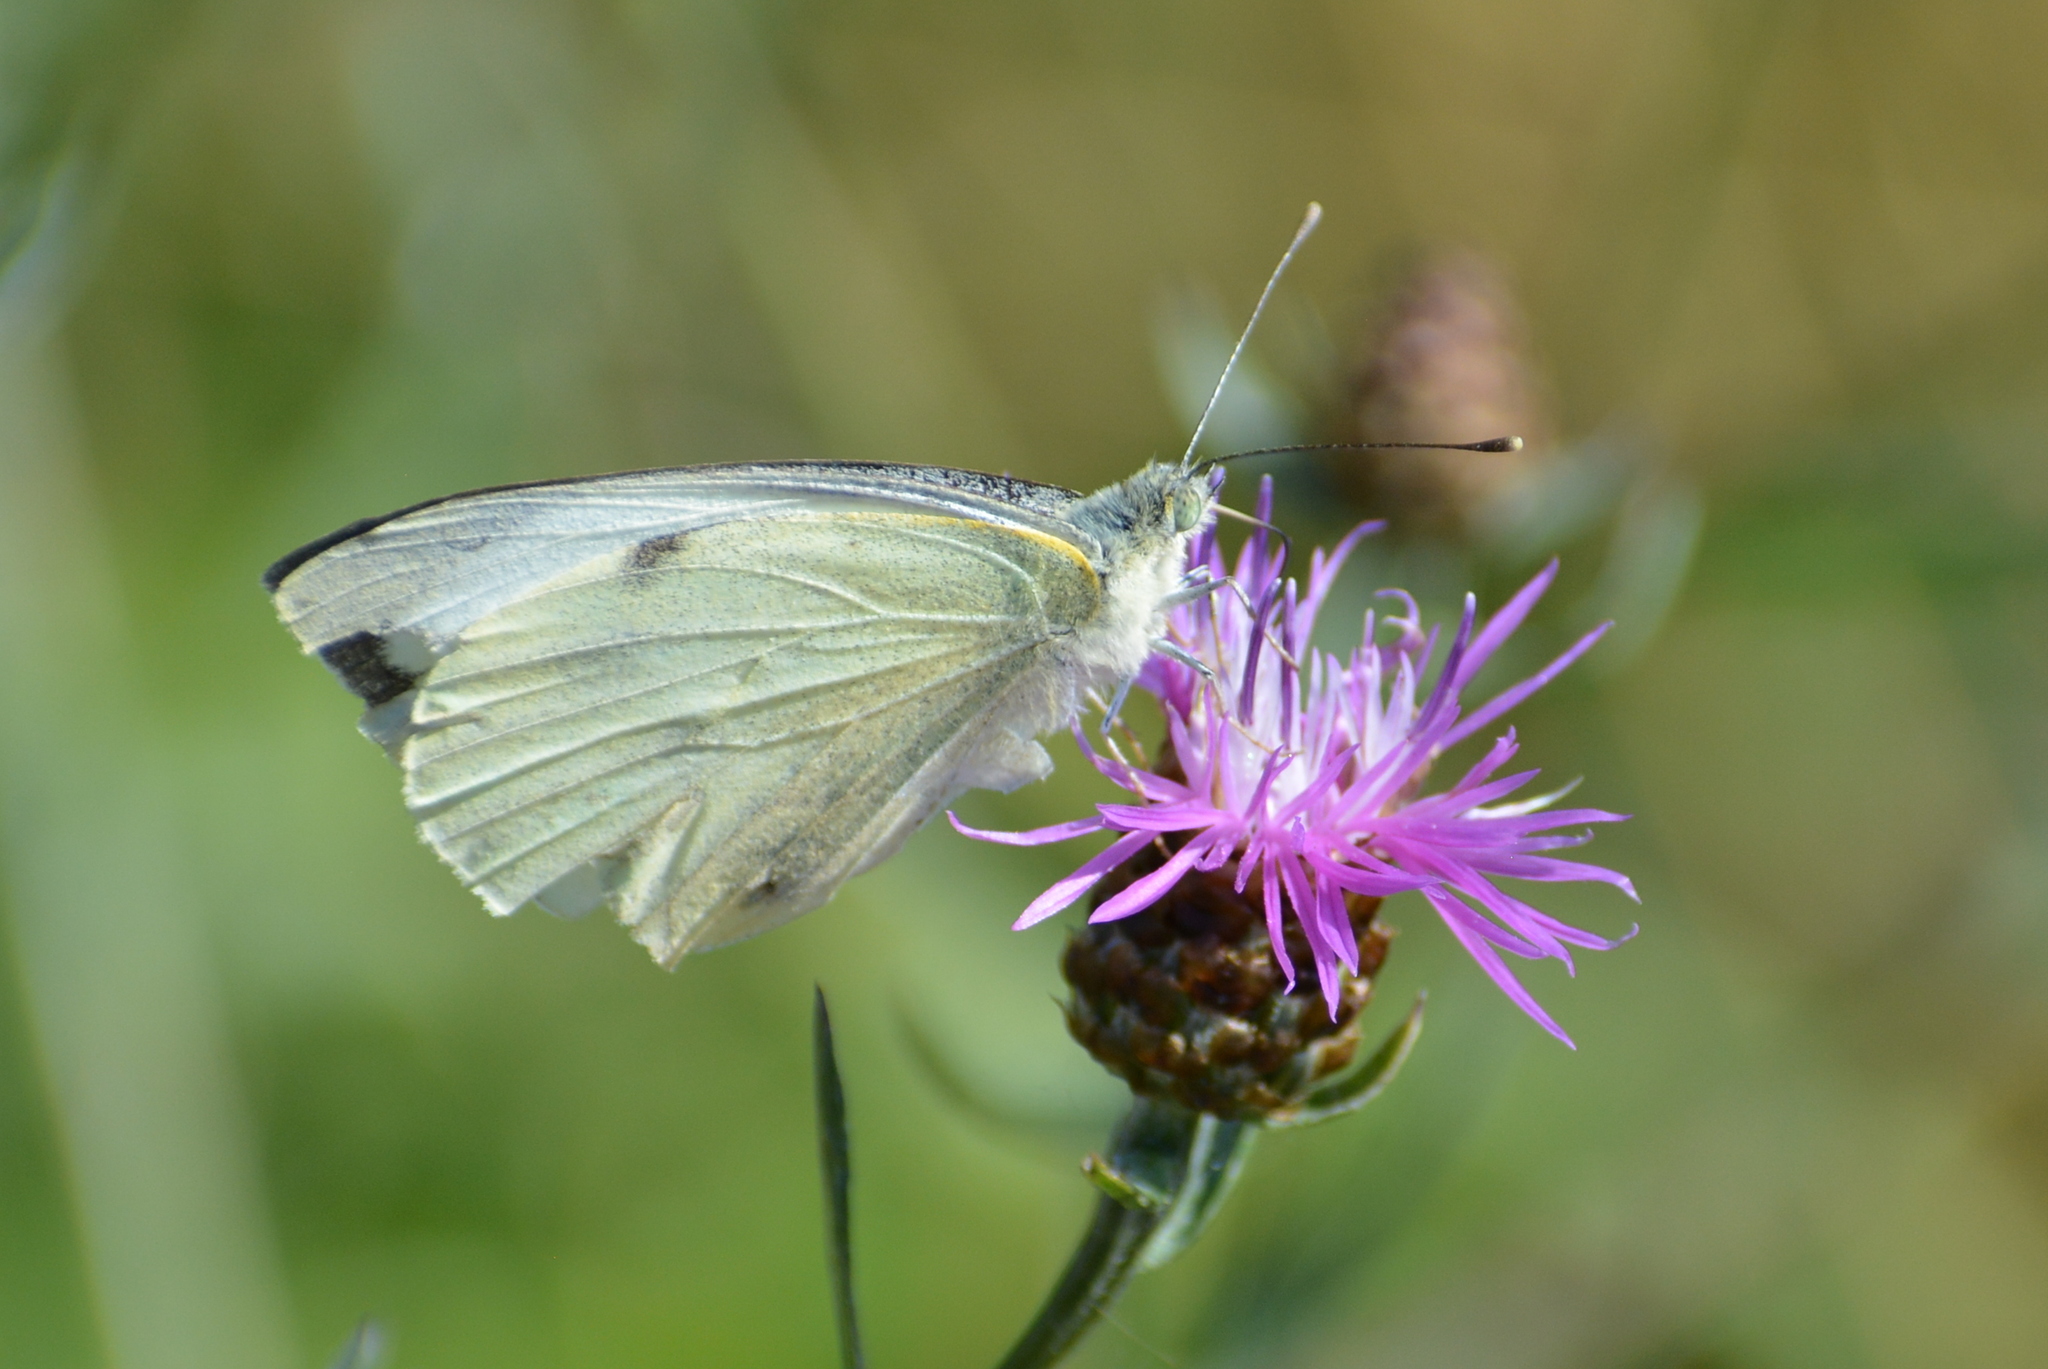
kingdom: Animalia
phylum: Arthropoda
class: Insecta
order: Lepidoptera
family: Pieridae
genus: Pieris
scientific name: Pieris brassicae
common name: Large white
